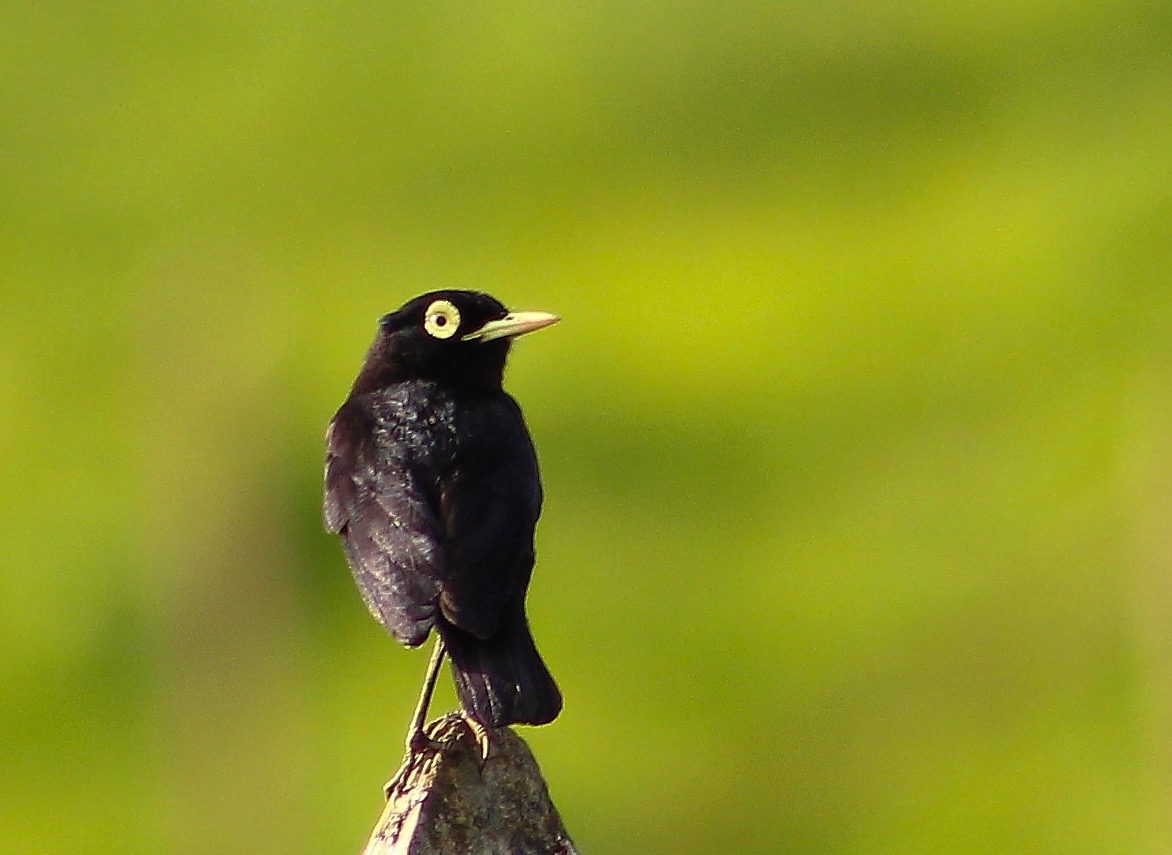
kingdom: Animalia
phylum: Chordata
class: Aves
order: Passeriformes
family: Tyrannidae
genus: Hymenops
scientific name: Hymenops perspicillatus
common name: Spectacled tyrant
